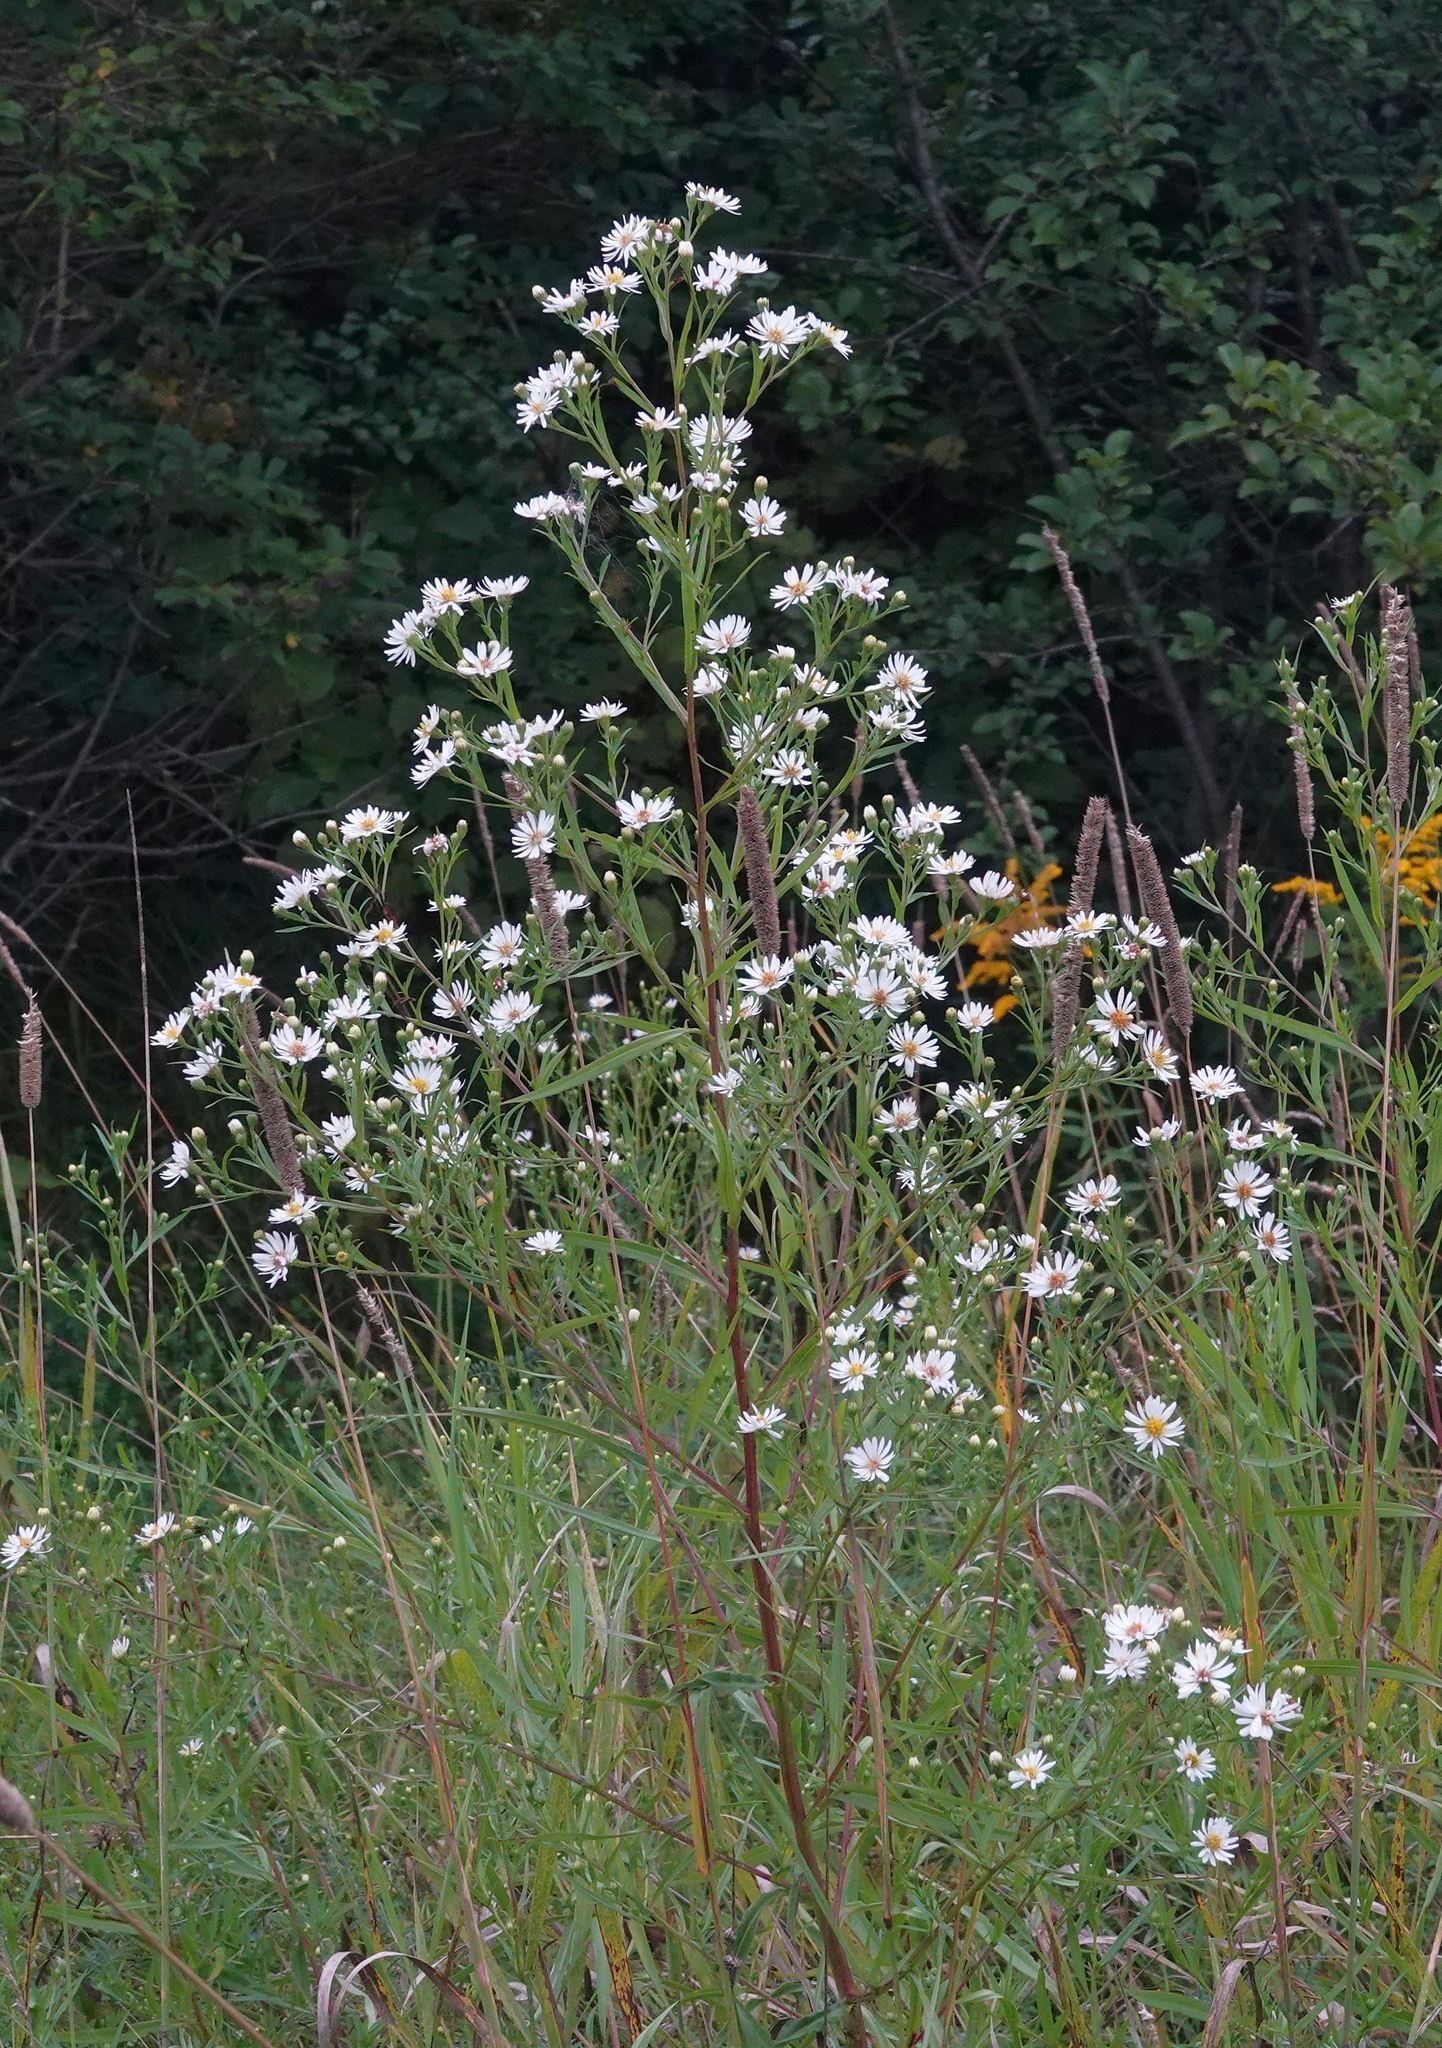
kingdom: Plantae
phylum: Tracheophyta
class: Magnoliopsida
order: Asterales
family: Asteraceae
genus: Symphyotrichum
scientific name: Symphyotrichum lanceolatum
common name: Panicled aster
